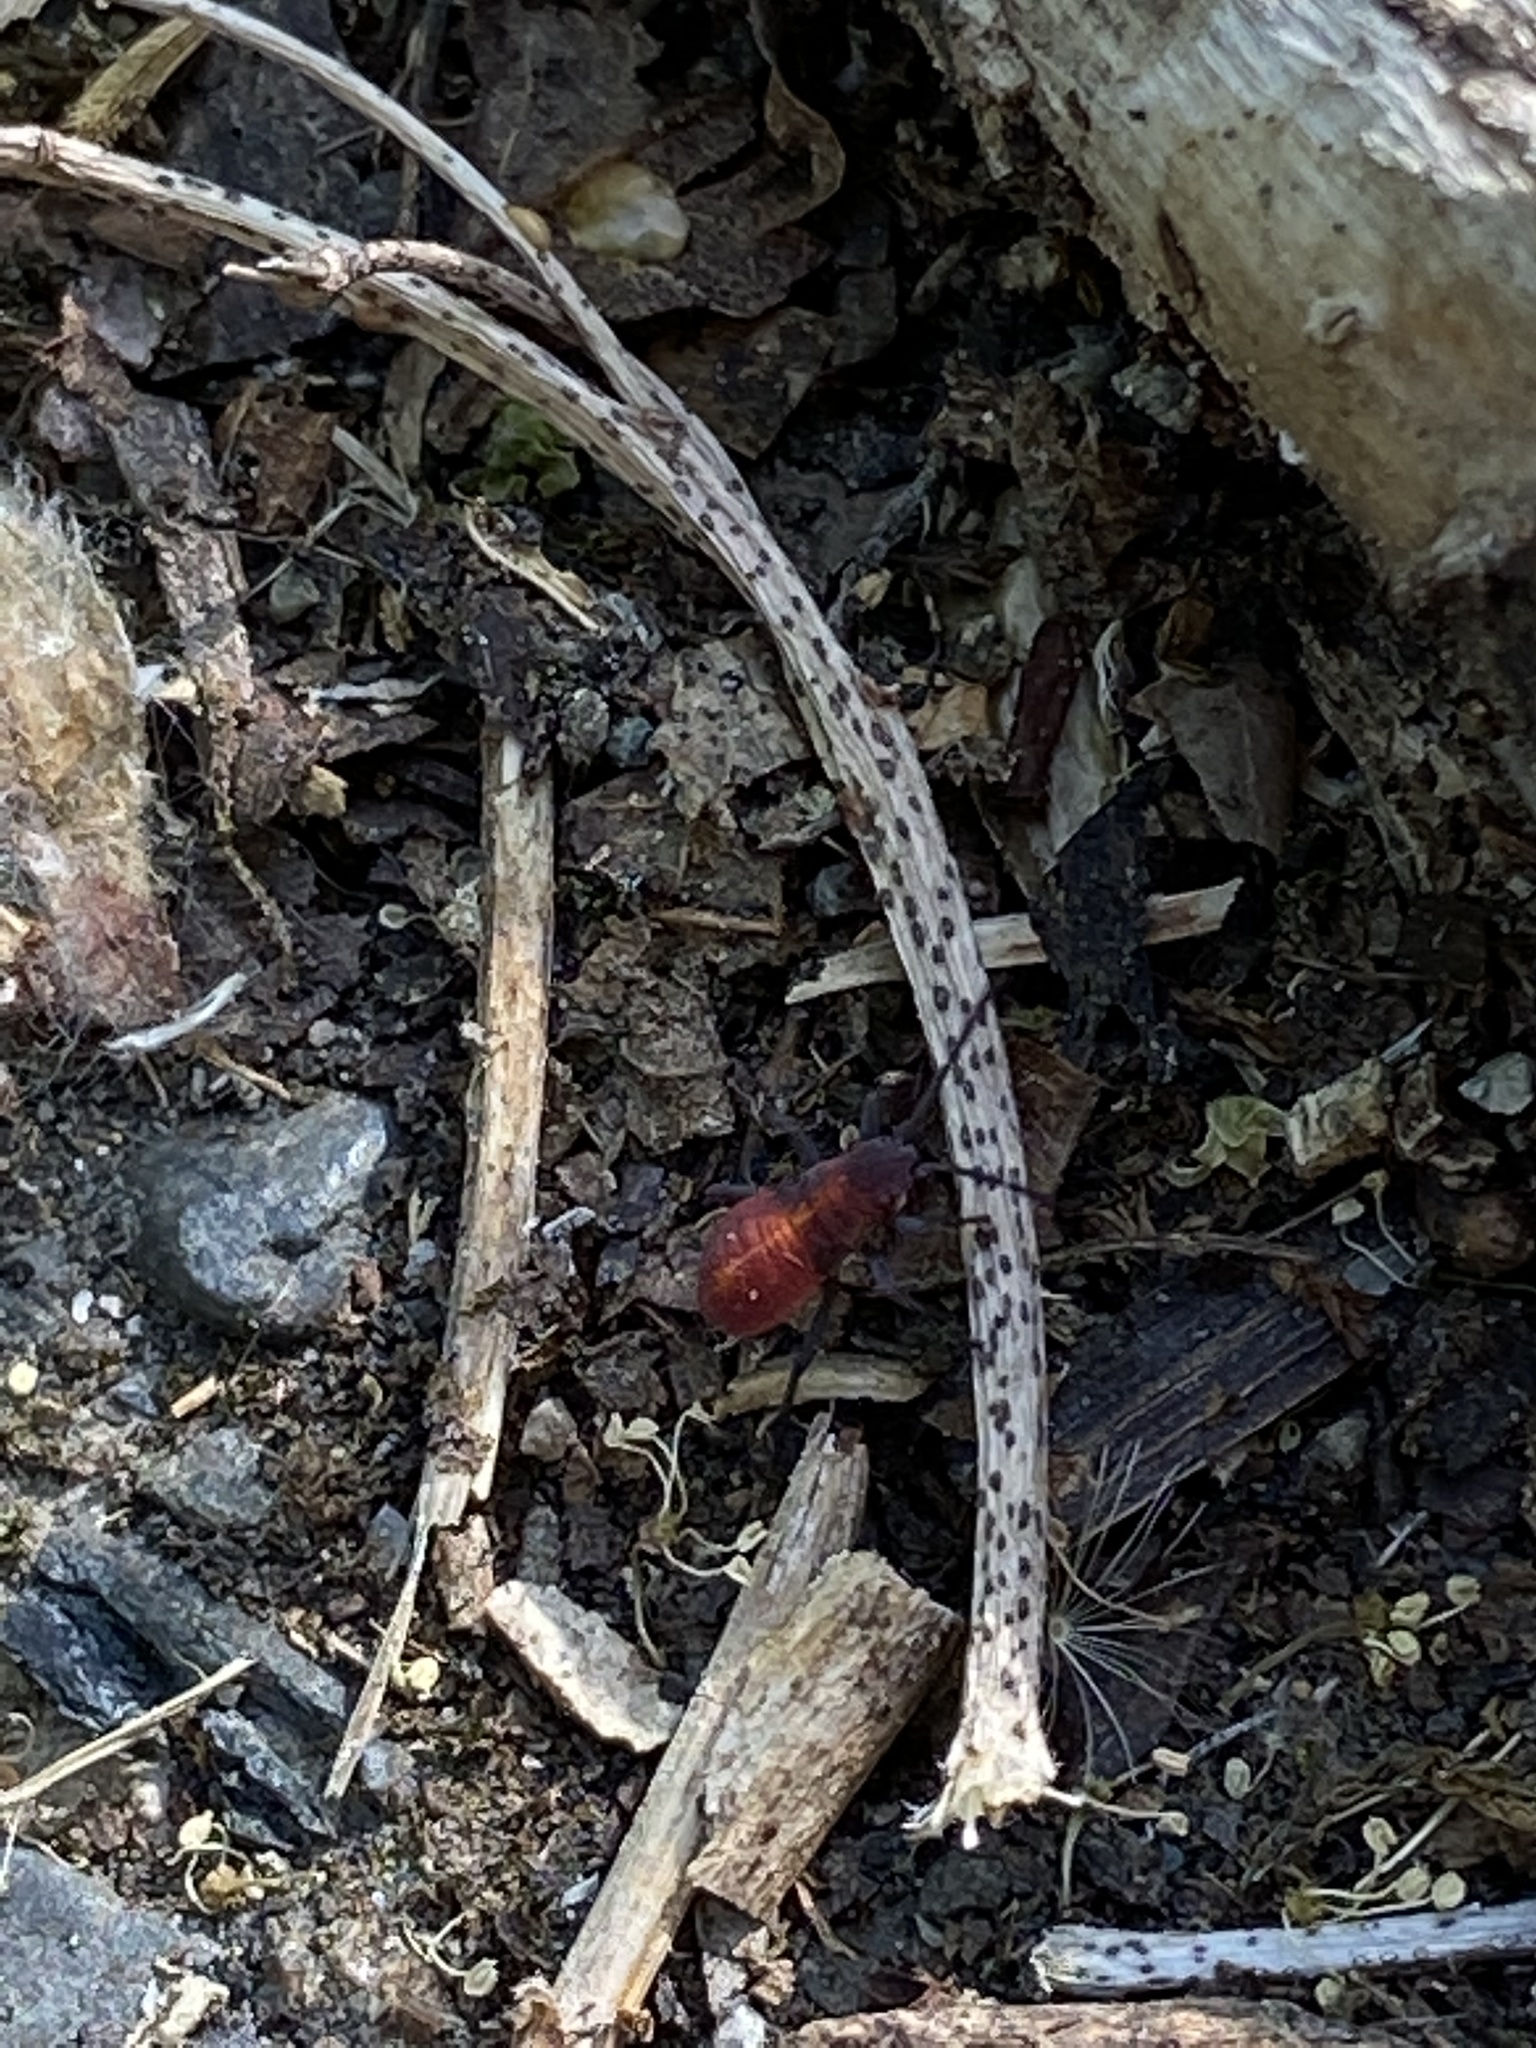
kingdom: Animalia
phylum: Arthropoda
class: Insecta
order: Hemiptera
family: Rhopalidae
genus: Boisea
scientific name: Boisea trivittata
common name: Boxelder bug
